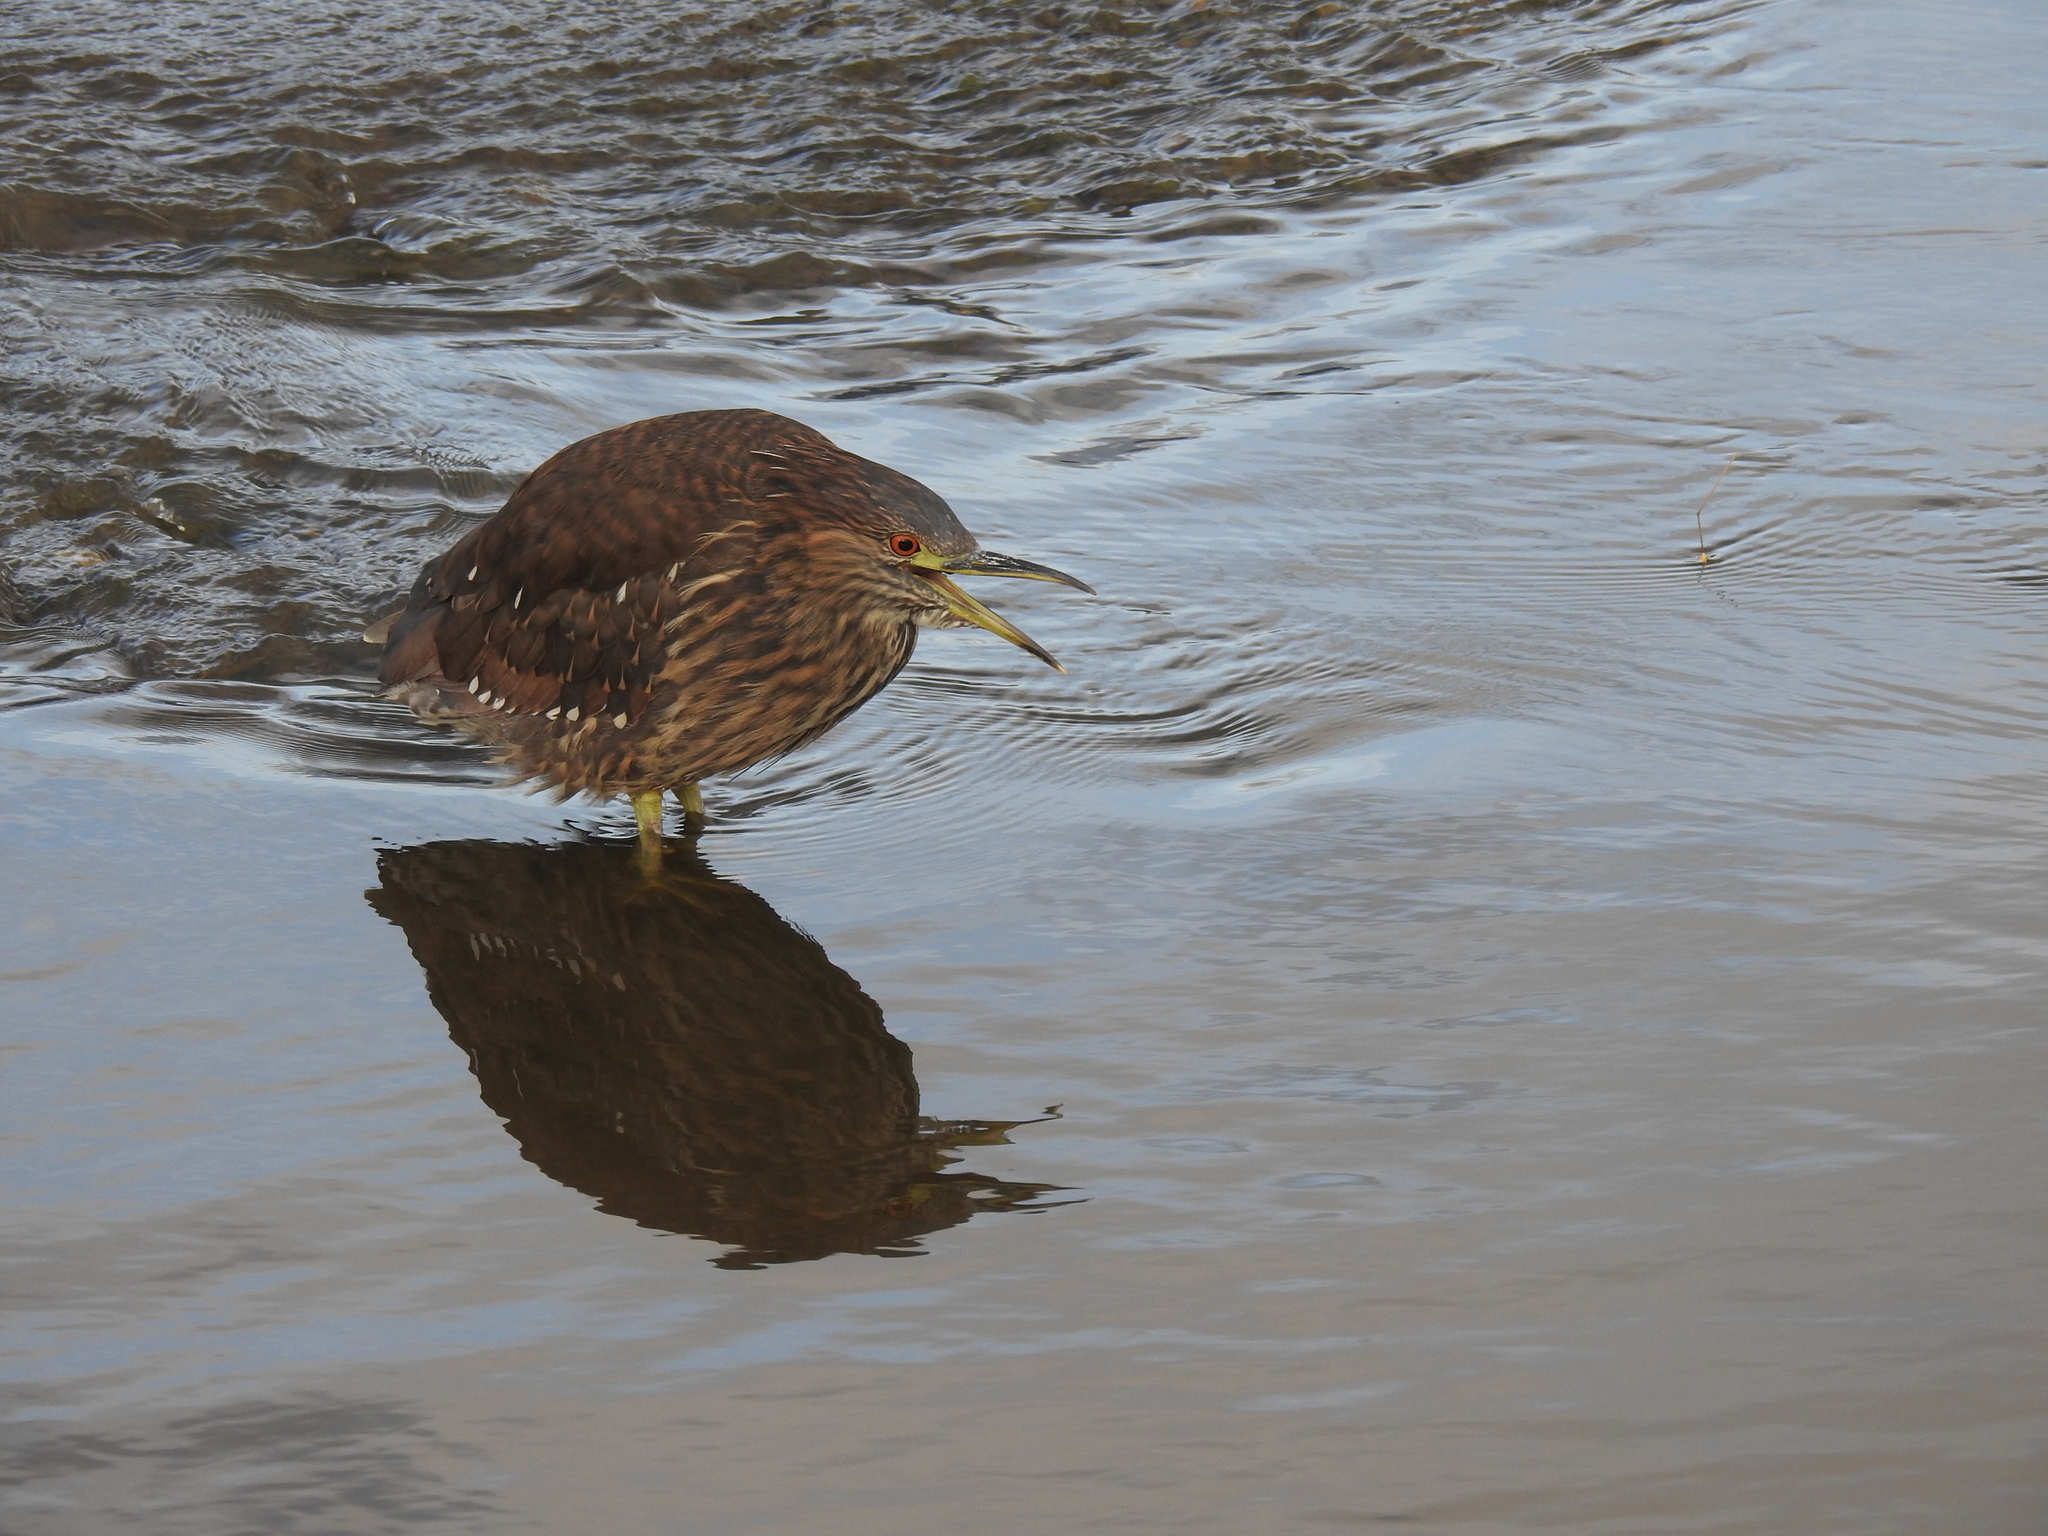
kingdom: Animalia
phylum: Chordata
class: Aves
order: Pelecaniformes
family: Ardeidae
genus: Nycticorax
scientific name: Nycticorax nycticorax
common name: Black-crowned night heron
